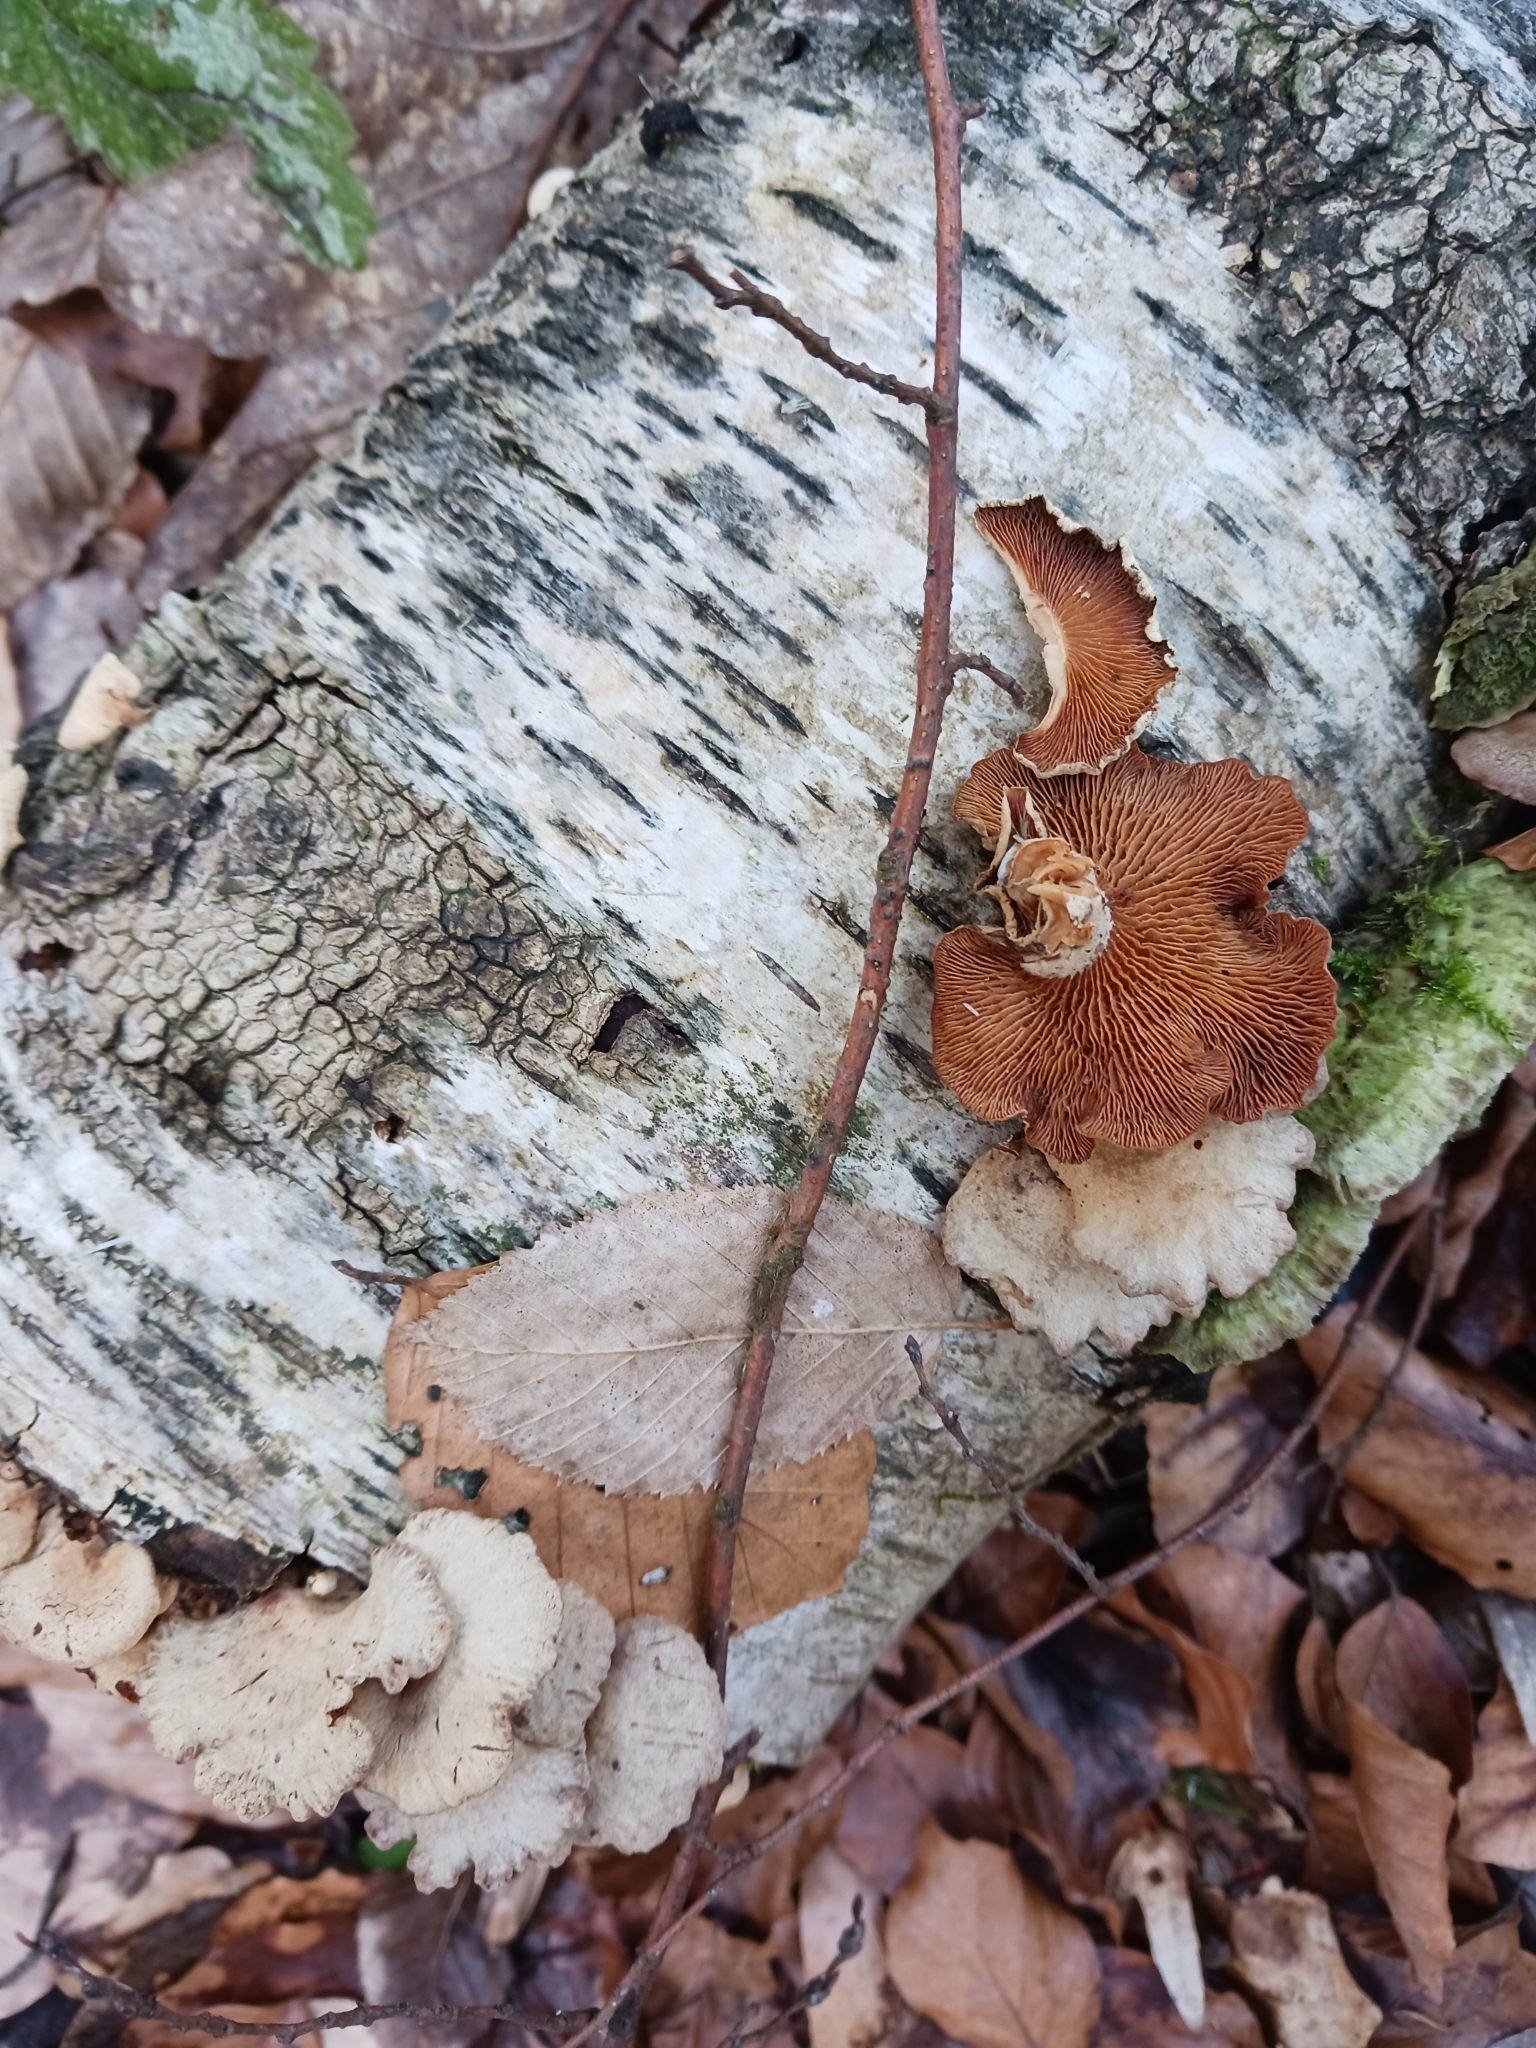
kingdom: Fungi
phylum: Basidiomycota
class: Agaricomycetes
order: Agaricales
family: Mycenaceae
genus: Panellus
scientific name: Panellus stipticus
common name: Bitter oysterling
